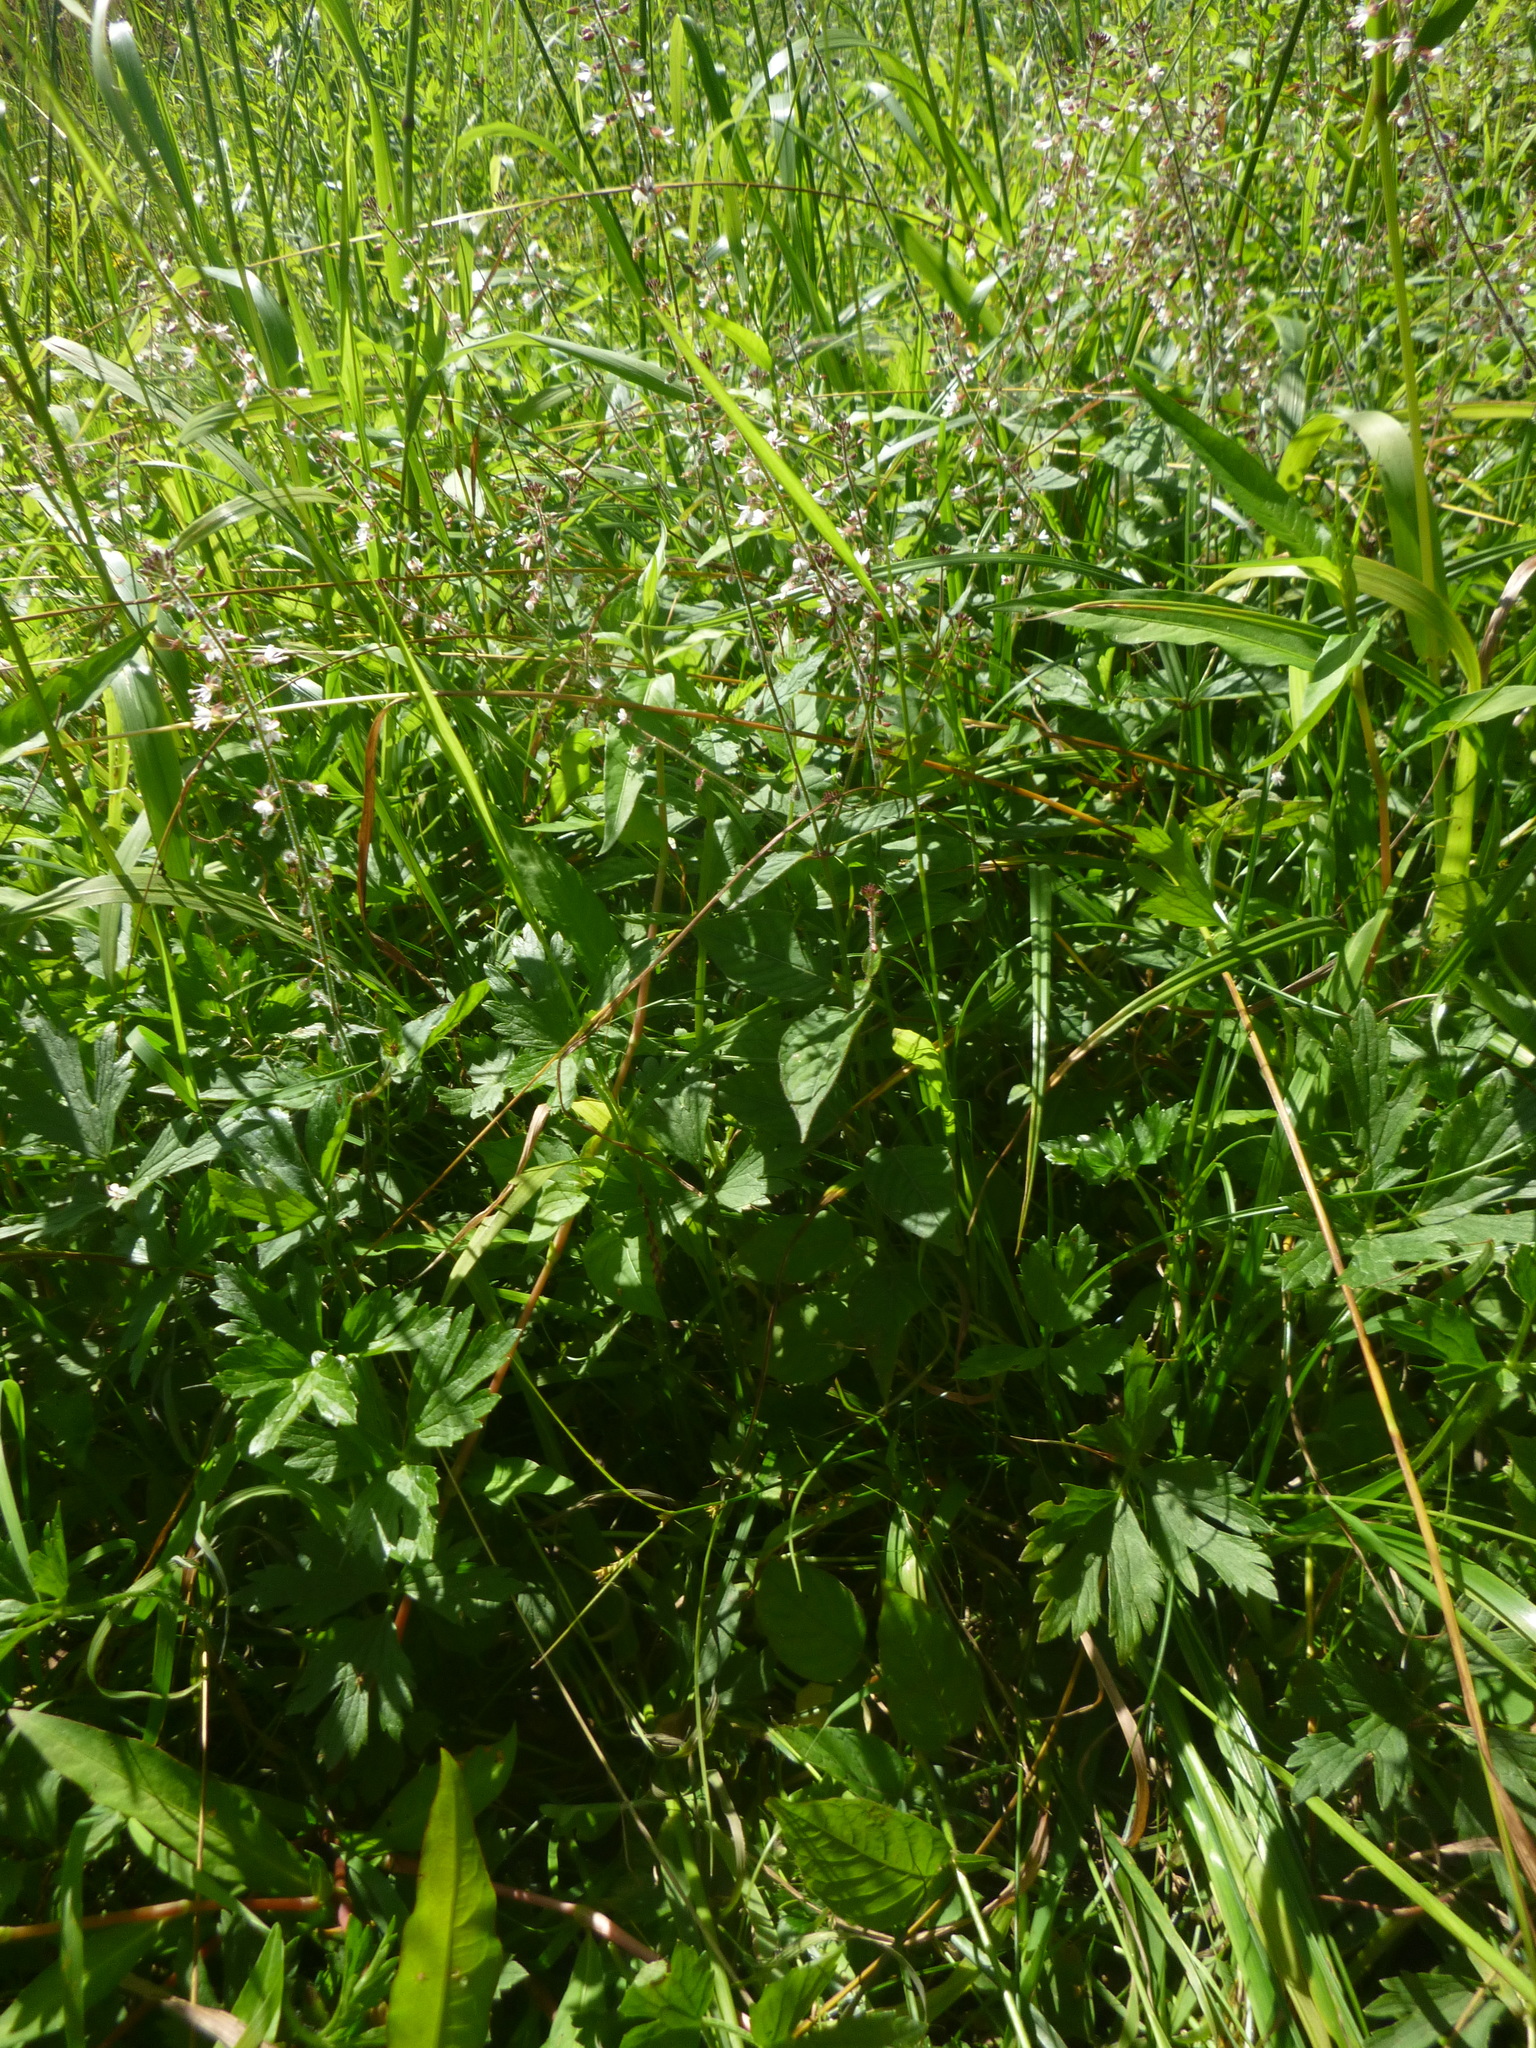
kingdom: Plantae
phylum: Tracheophyta
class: Magnoliopsida
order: Myrtales
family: Onagraceae
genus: Circaea
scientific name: Circaea lutetiana
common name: Enchanter's-nightshade
